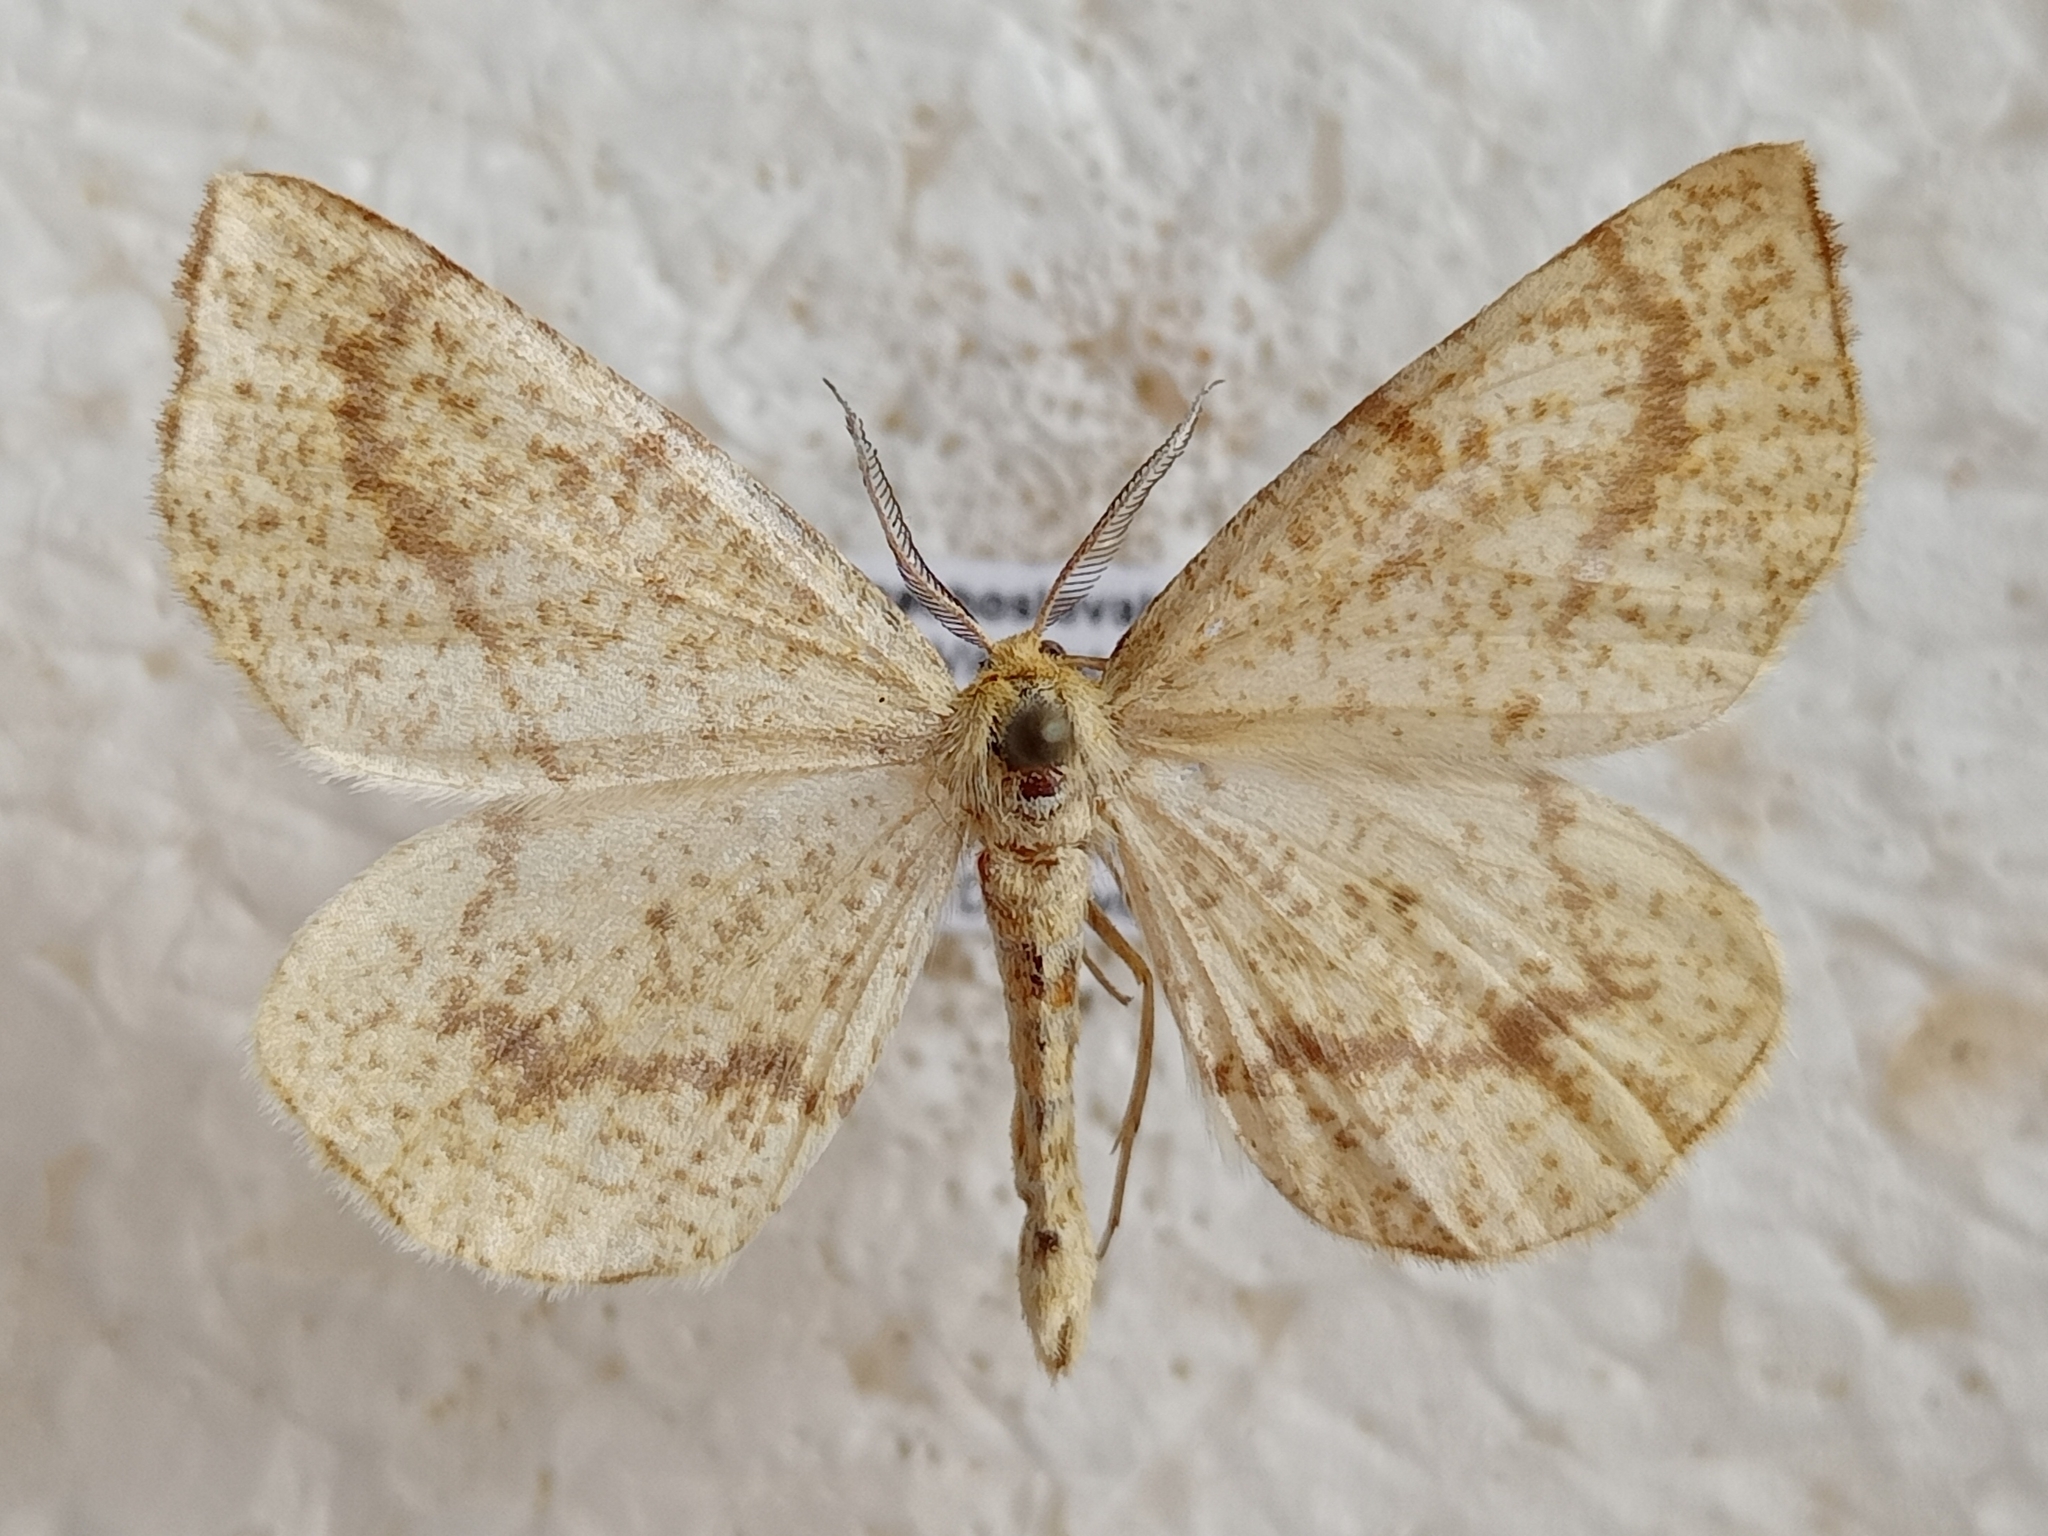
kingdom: Animalia
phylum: Arthropoda
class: Insecta
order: Lepidoptera
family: Geometridae
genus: Hypoxystis
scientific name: Hypoxystis pluviaria
